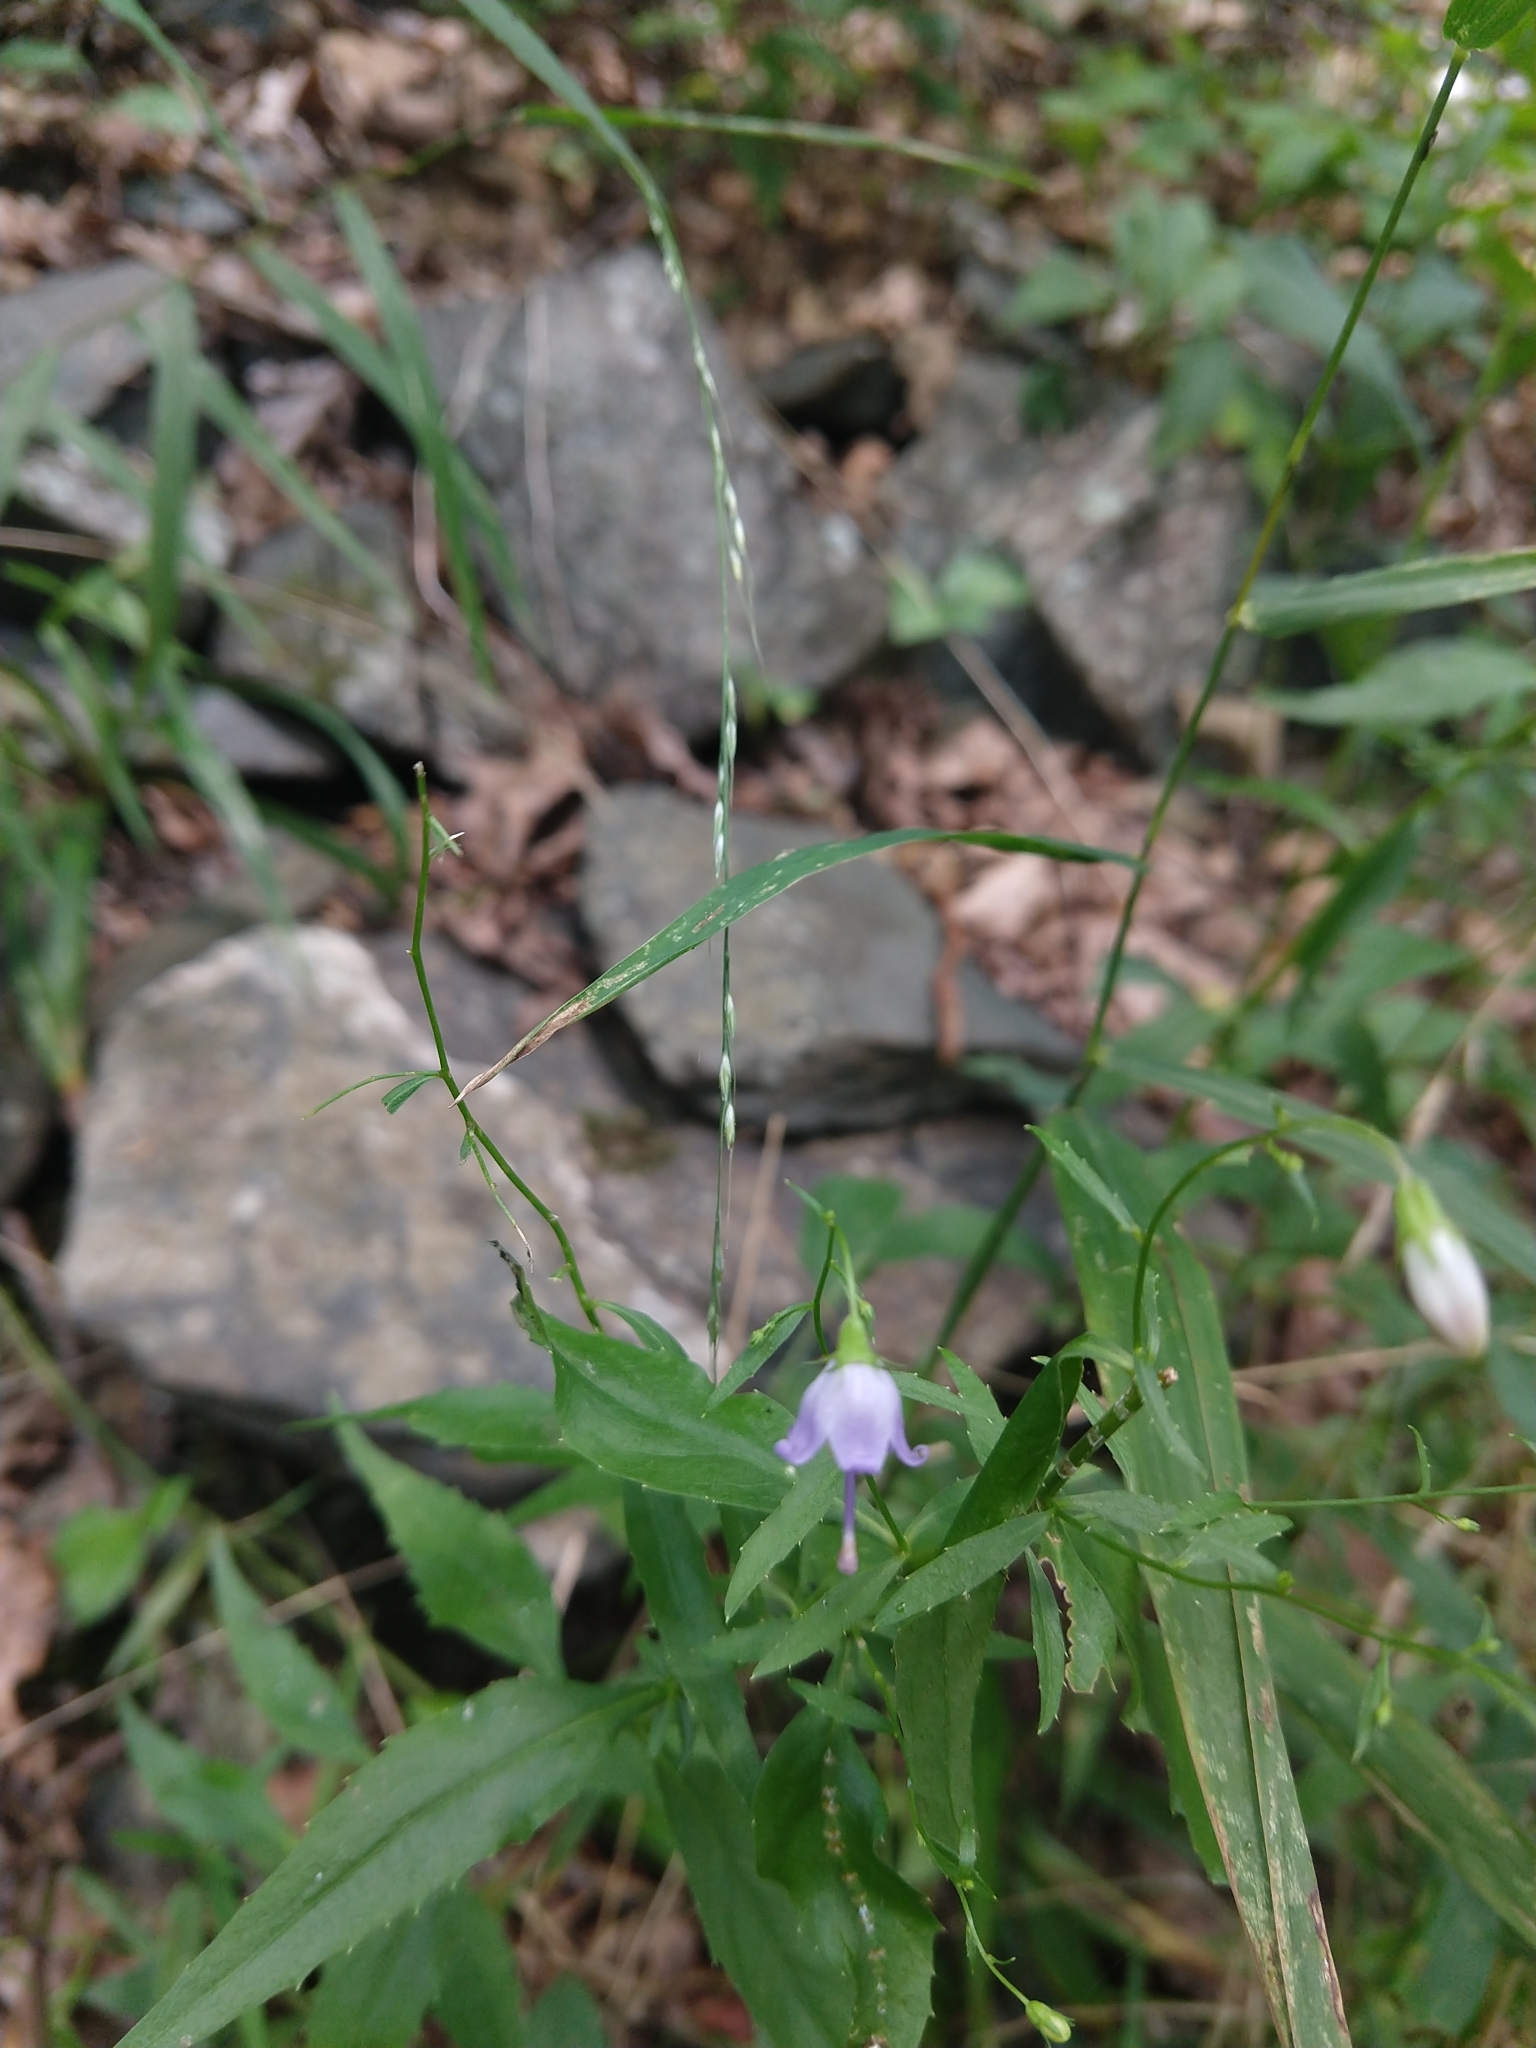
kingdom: Plantae
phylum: Tracheophyta
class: Magnoliopsida
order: Asterales
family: Campanulaceae
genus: Campanula
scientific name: Campanula divaricata
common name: Appalachian bellflower
